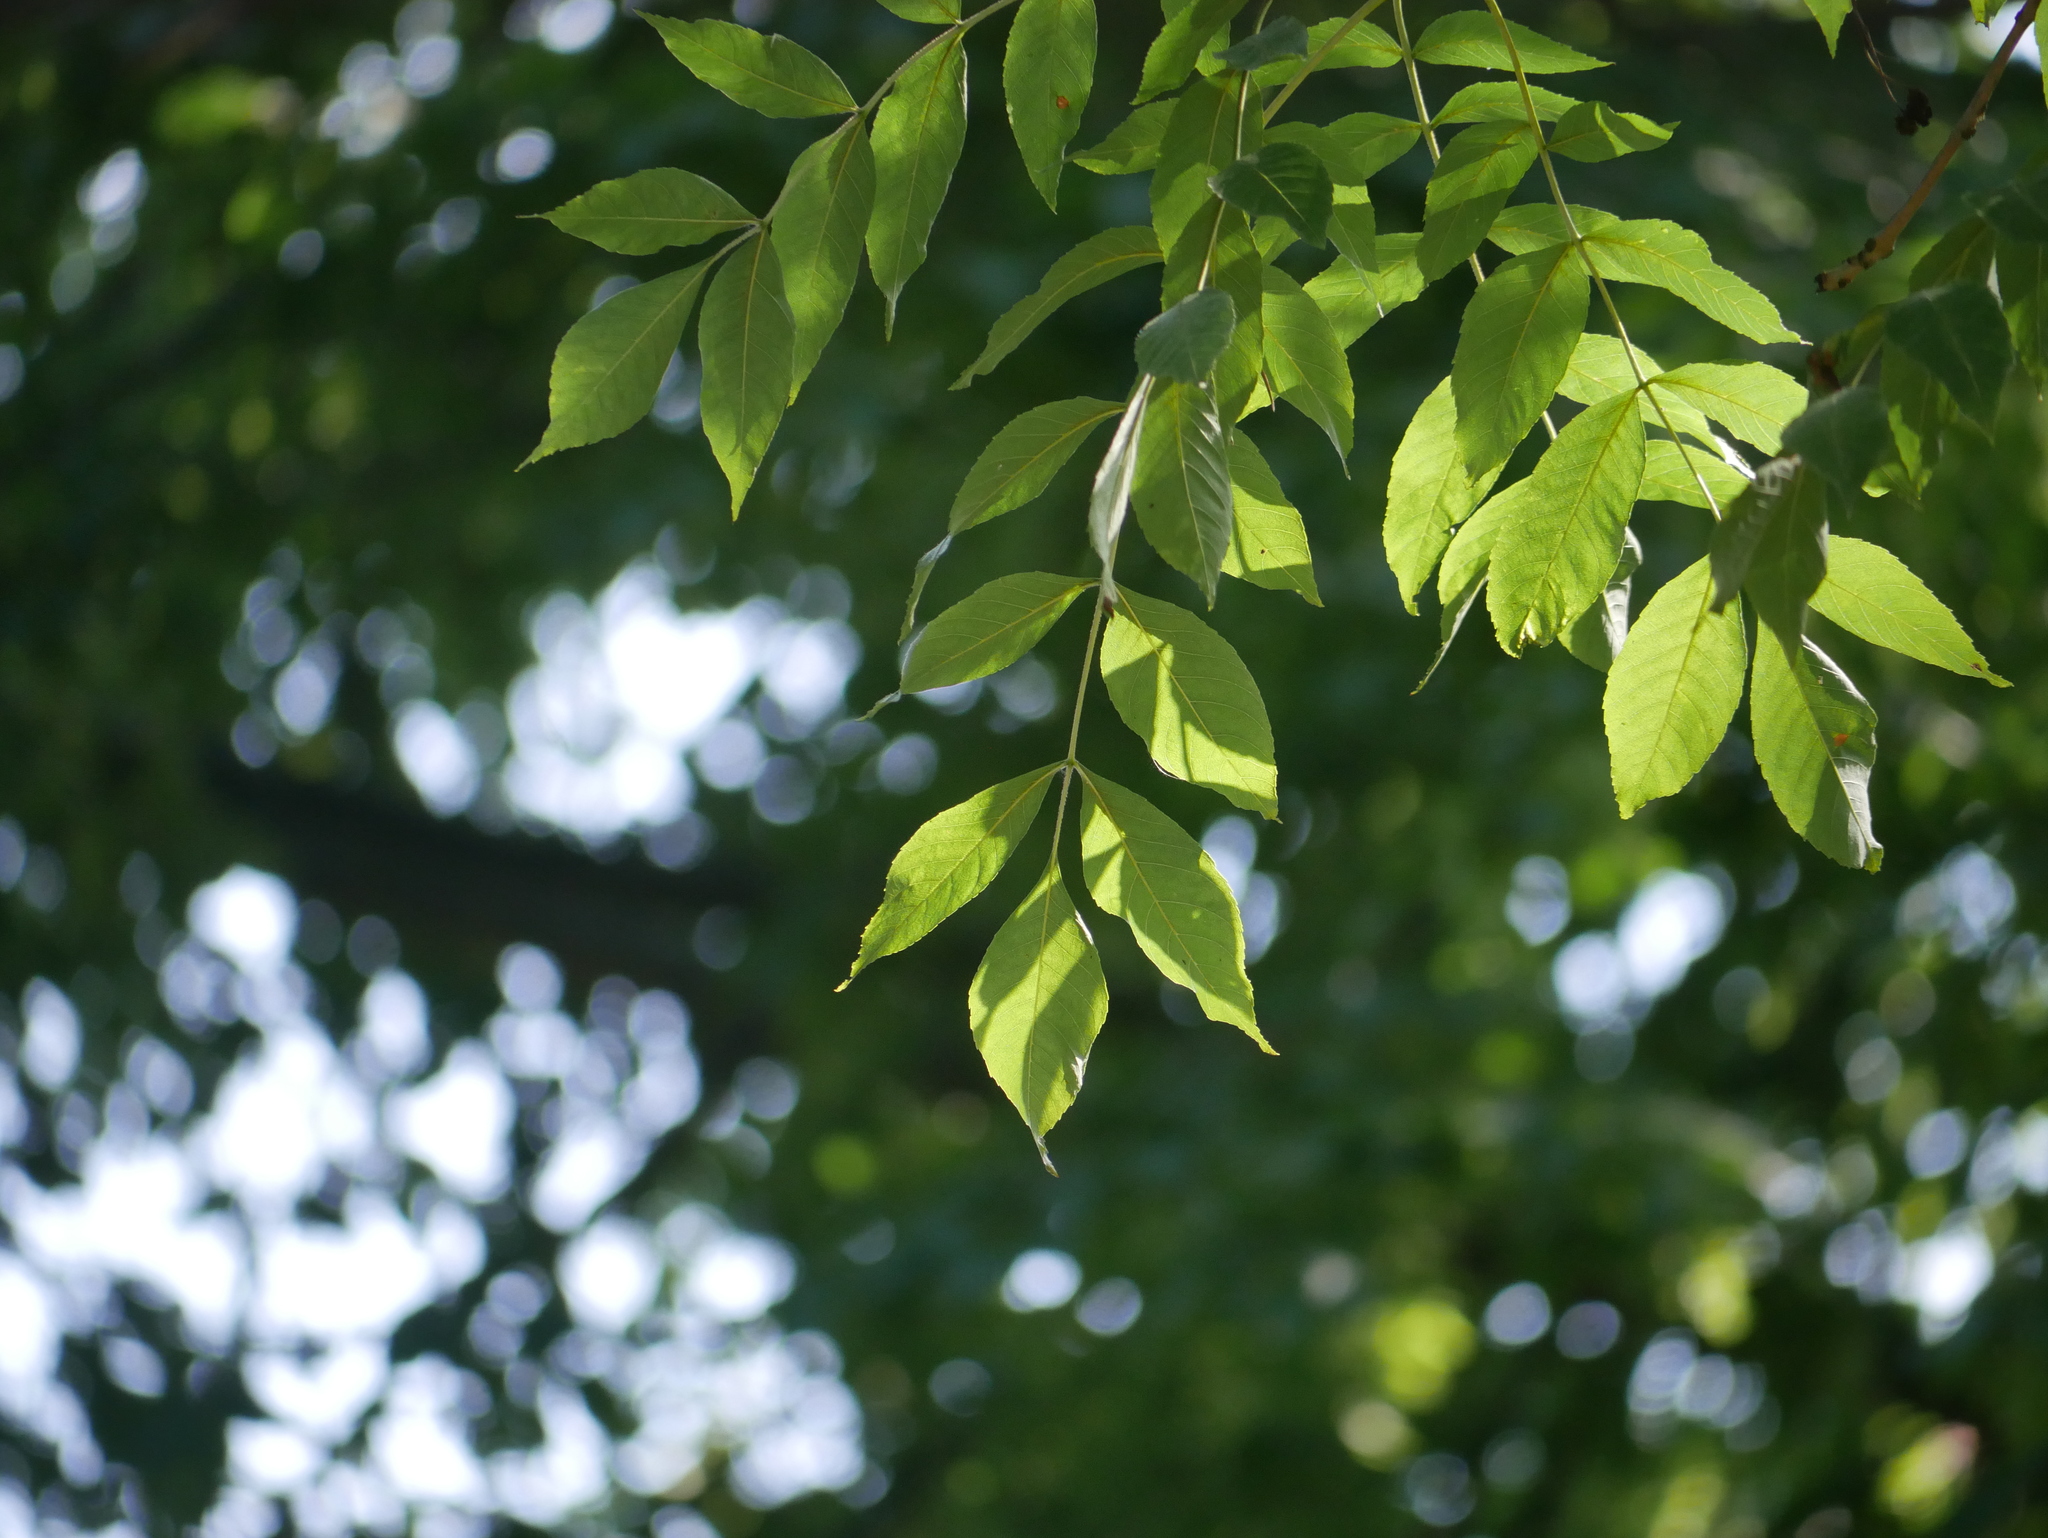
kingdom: Plantae
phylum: Tracheophyta
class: Magnoliopsida
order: Lamiales
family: Oleaceae
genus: Fraxinus
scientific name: Fraxinus excelsior
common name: European ash
